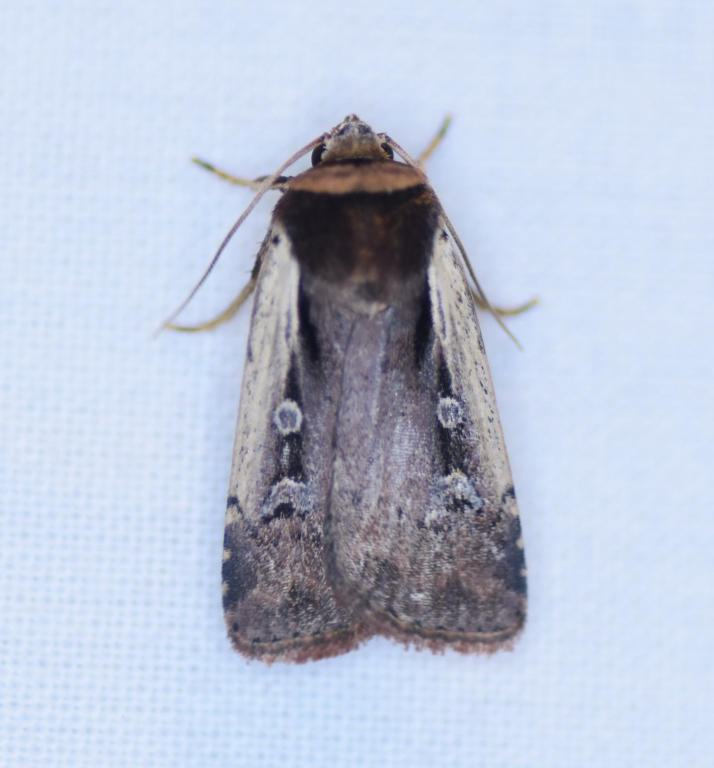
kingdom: Animalia
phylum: Arthropoda
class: Insecta
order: Lepidoptera
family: Noctuidae
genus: Ochropleura
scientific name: Ochropleura implecta
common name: Flame-shouldered dart
